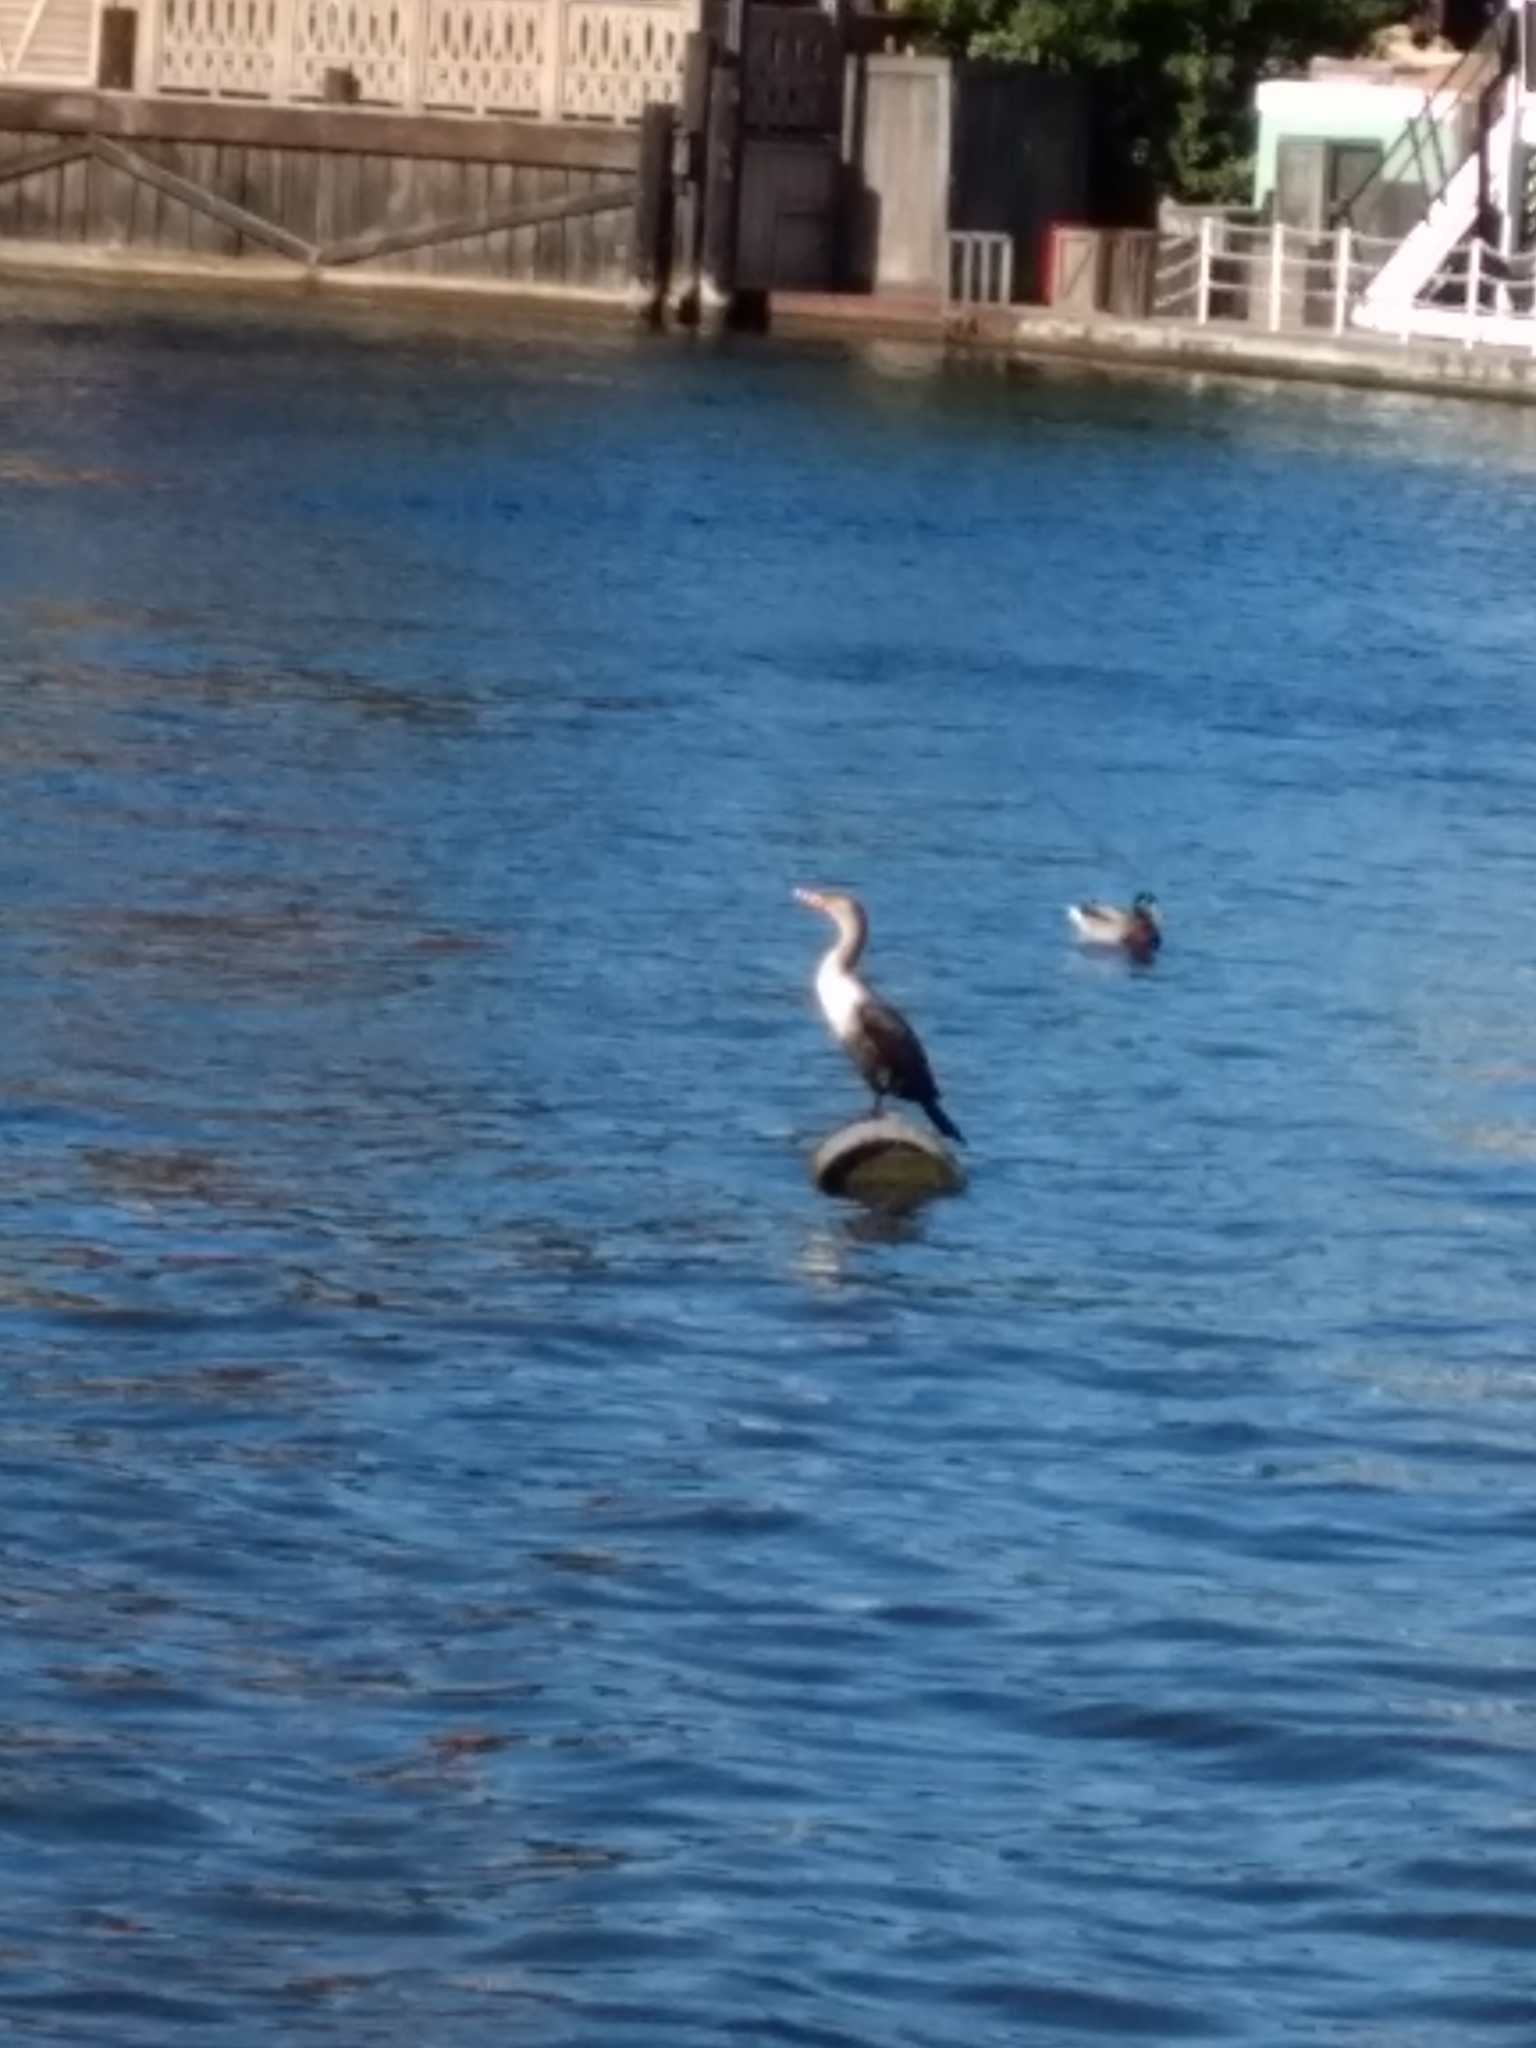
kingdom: Animalia
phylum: Chordata
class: Aves
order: Suliformes
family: Phalacrocoracidae
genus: Phalacrocorax
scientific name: Phalacrocorax auritus
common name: Double-crested cormorant
